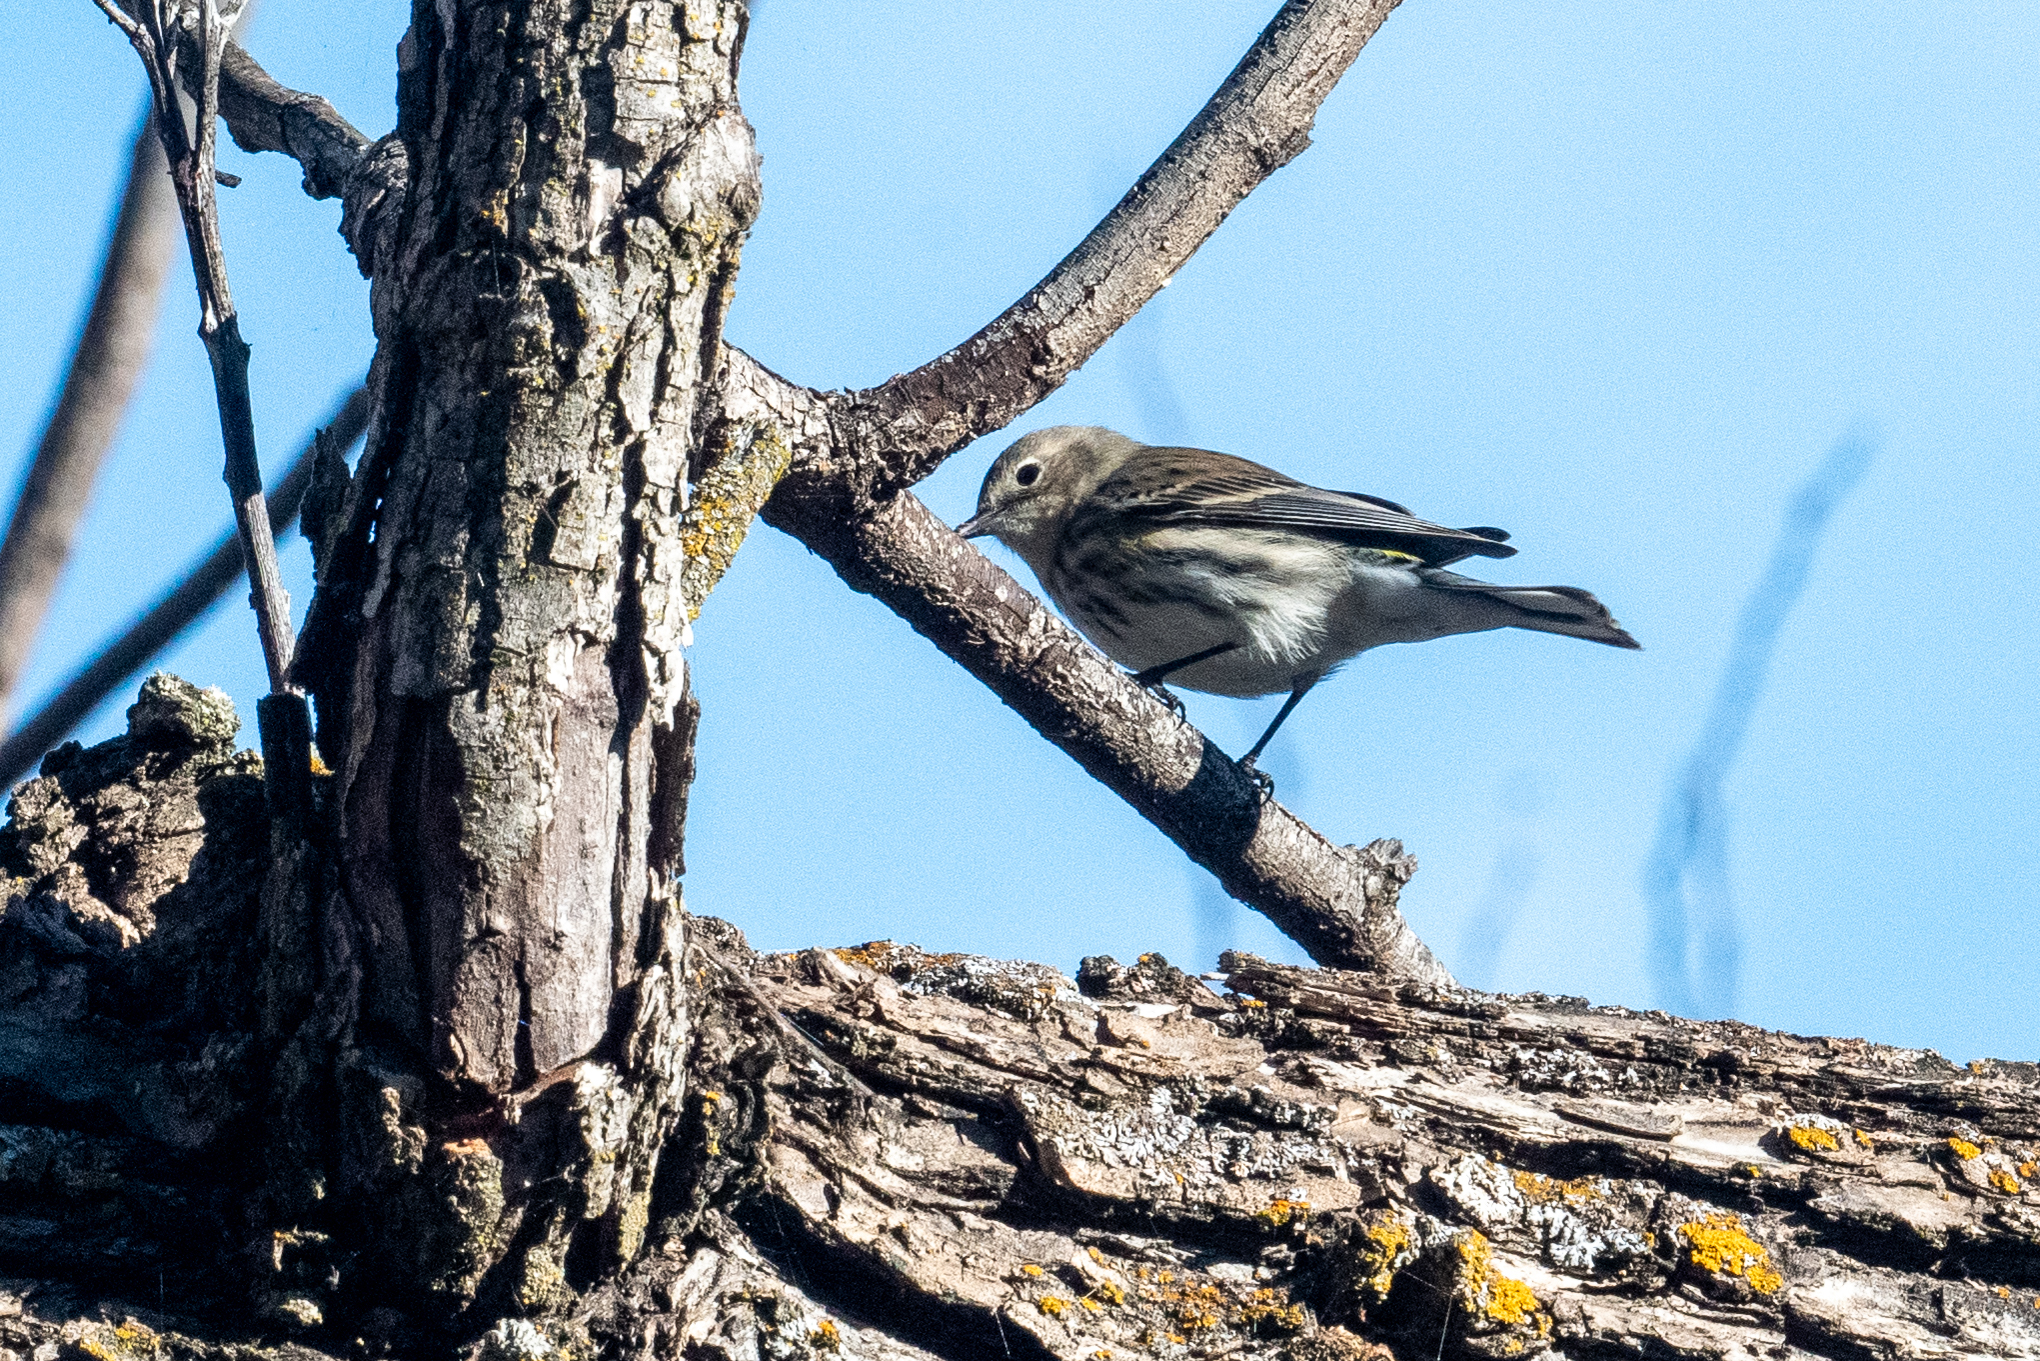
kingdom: Animalia
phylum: Chordata
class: Aves
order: Passeriformes
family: Parulidae
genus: Setophaga
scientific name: Setophaga coronata
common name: Myrtle warbler
